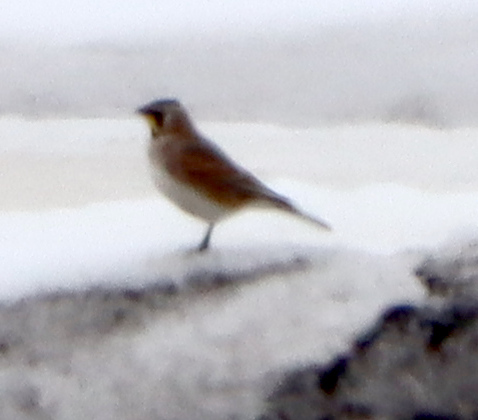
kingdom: Animalia
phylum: Chordata
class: Aves
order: Passeriformes
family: Alaudidae
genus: Eremophila
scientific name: Eremophila alpestris
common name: Horned lark
